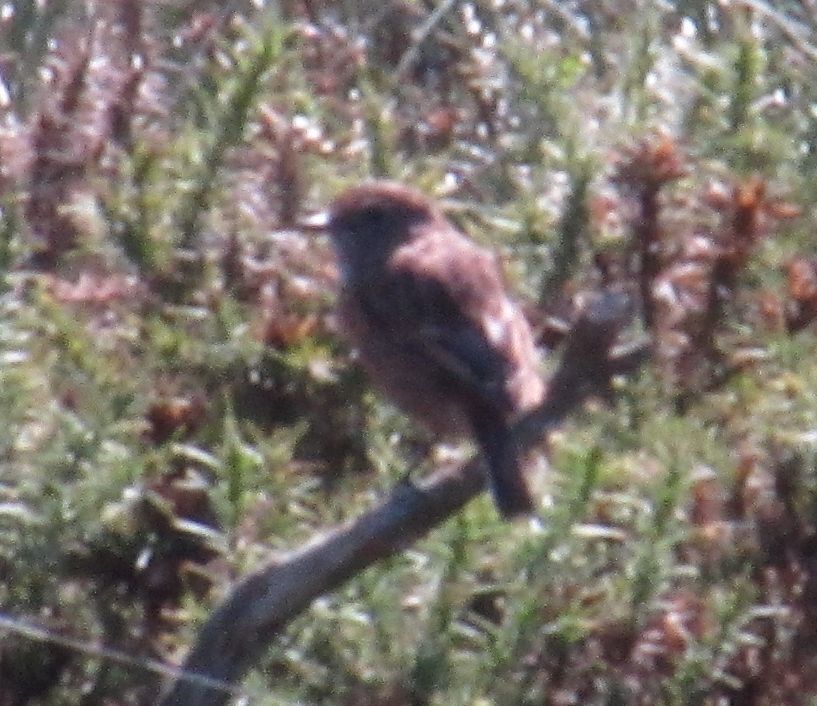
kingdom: Animalia
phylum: Chordata
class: Aves
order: Passeriformes
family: Muscicapidae
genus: Saxicola
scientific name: Saxicola rubicola
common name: European stonechat
